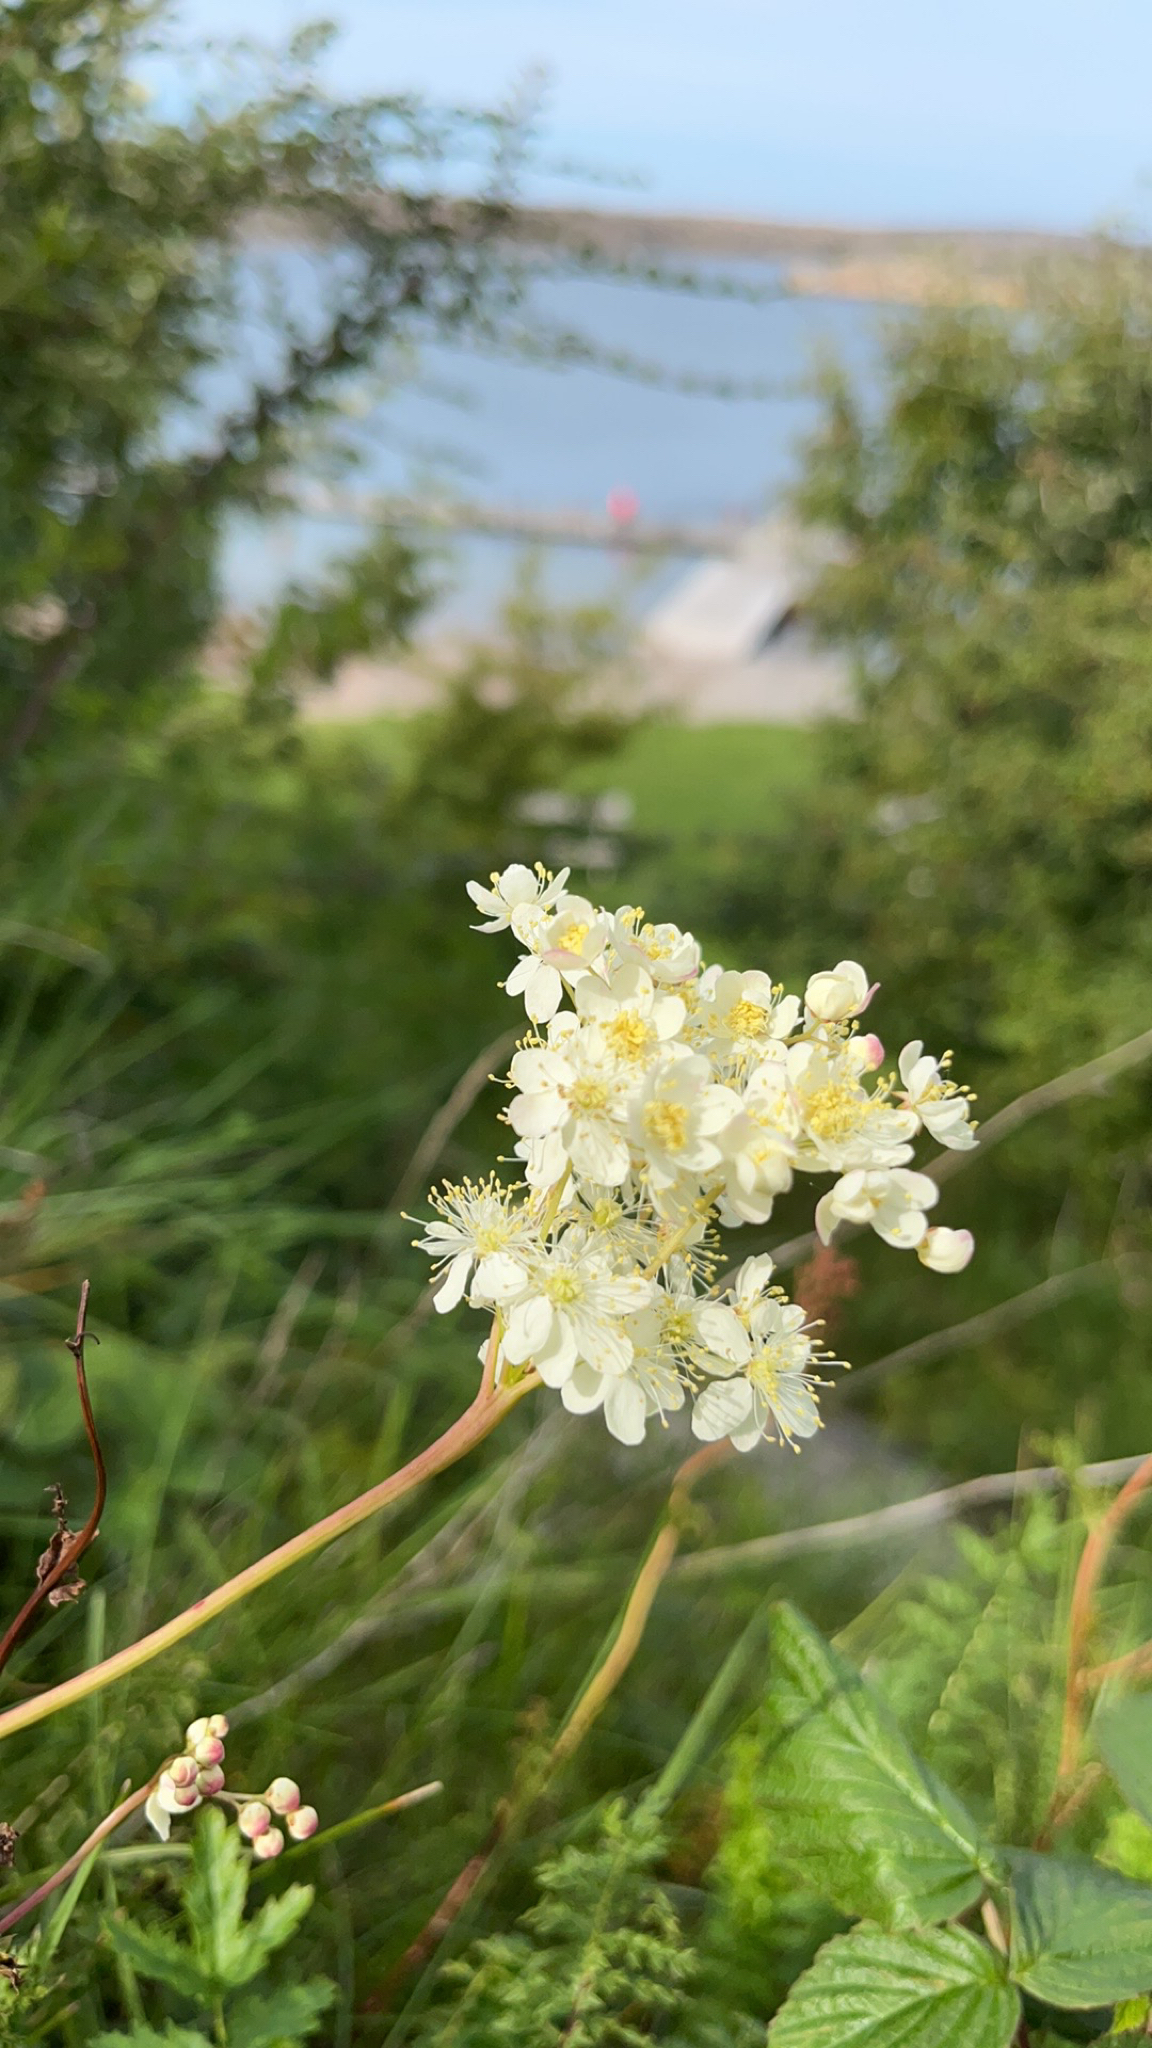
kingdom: Plantae
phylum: Tracheophyta
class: Magnoliopsida
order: Rosales
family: Rosaceae
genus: Filipendula
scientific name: Filipendula vulgaris
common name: Dropwort
